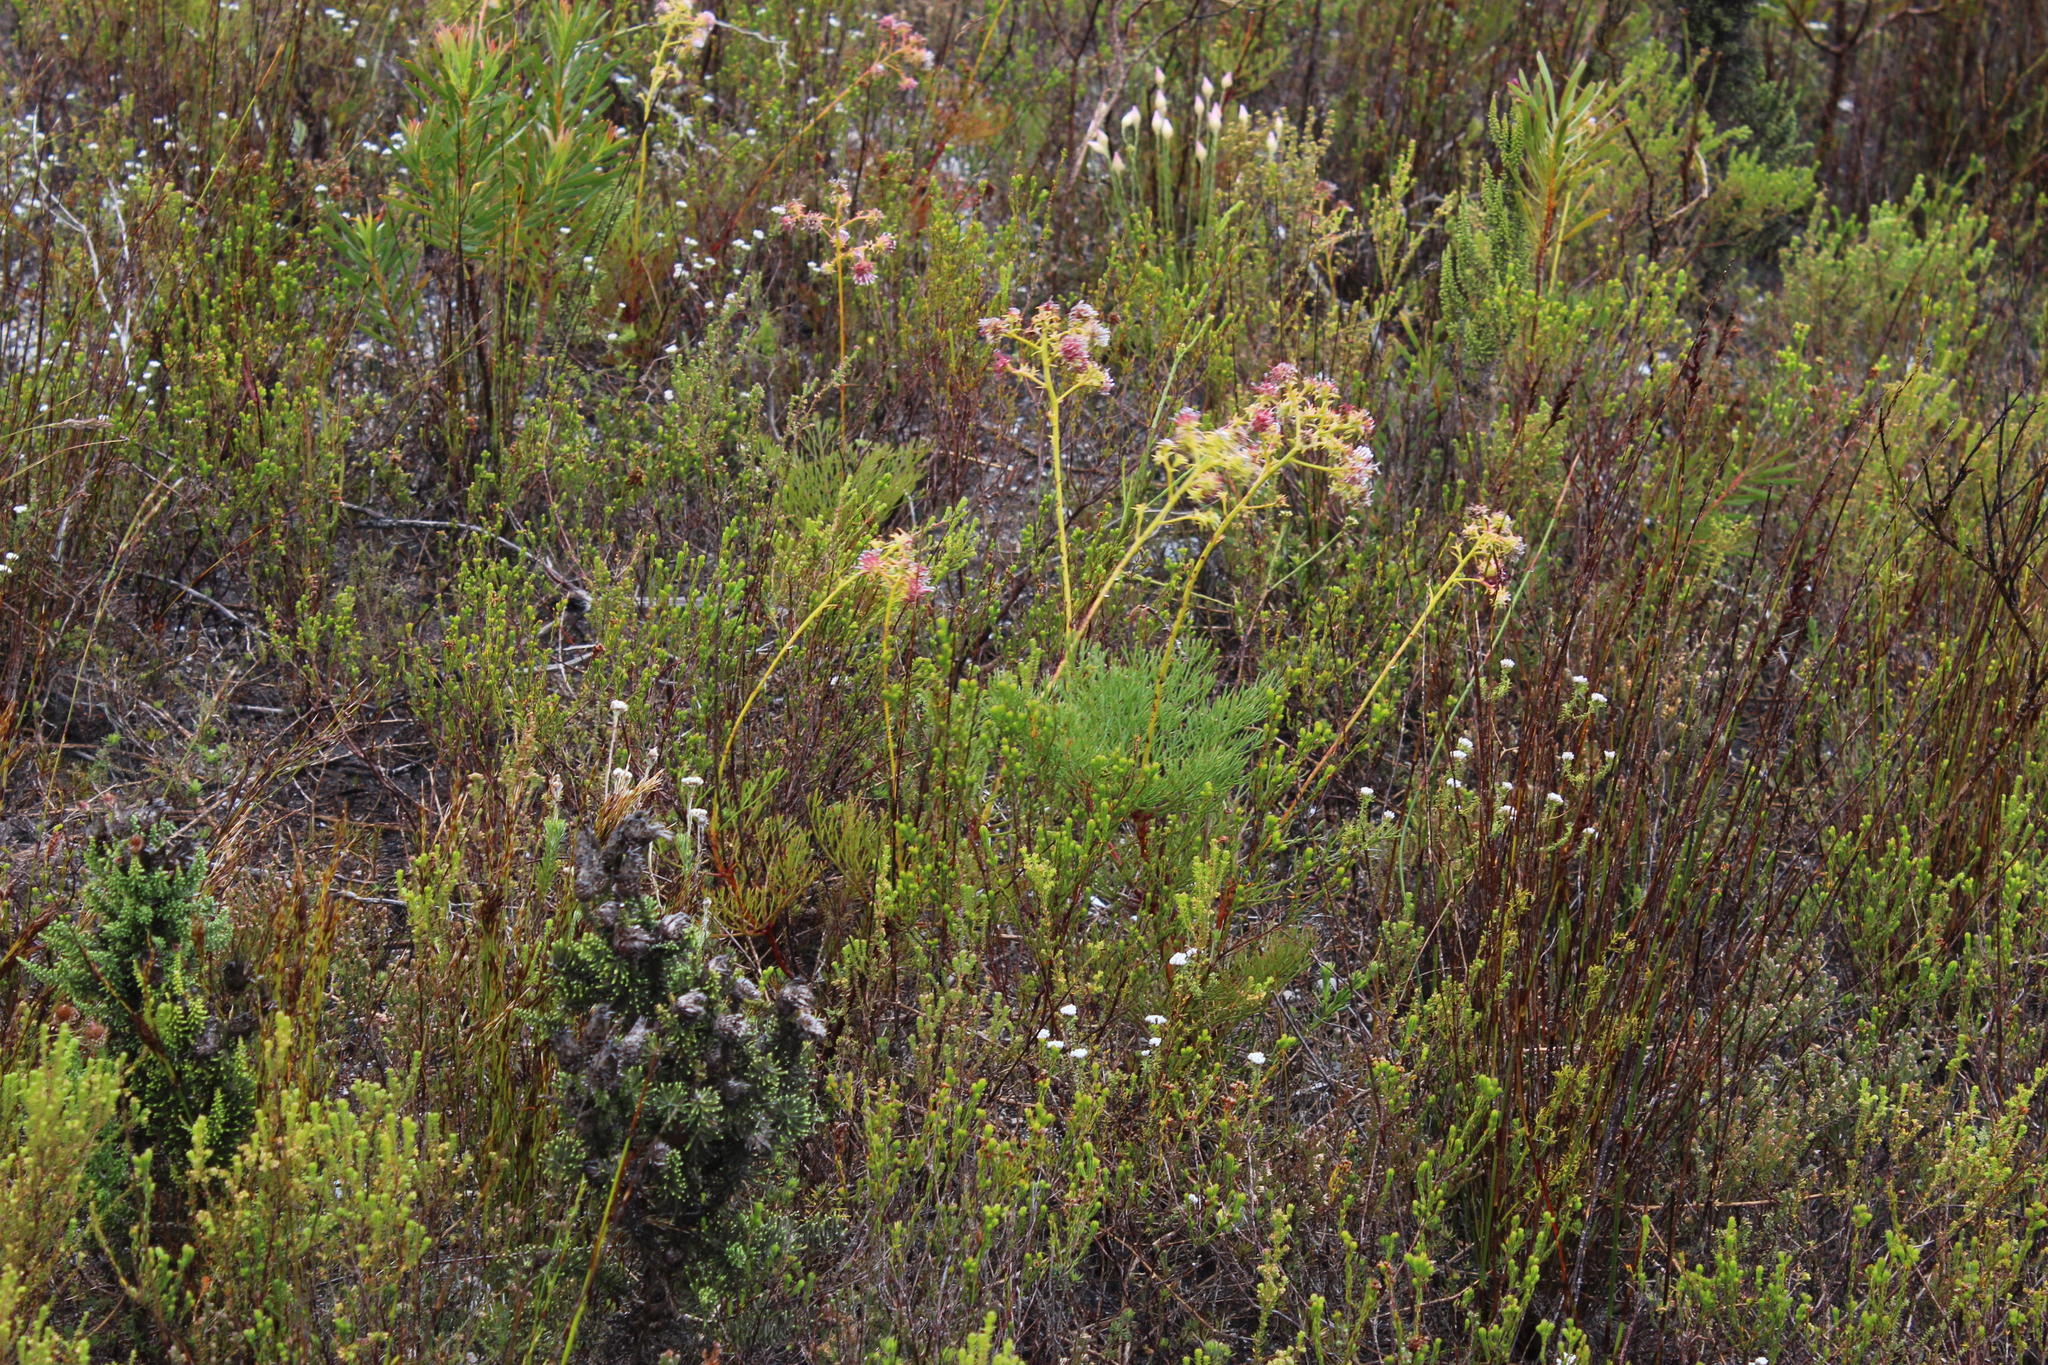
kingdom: Plantae
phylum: Tracheophyta
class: Magnoliopsida
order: Proteales
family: Proteaceae
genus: Serruria
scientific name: Serruria elongata
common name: Long-stalk spiderhead
